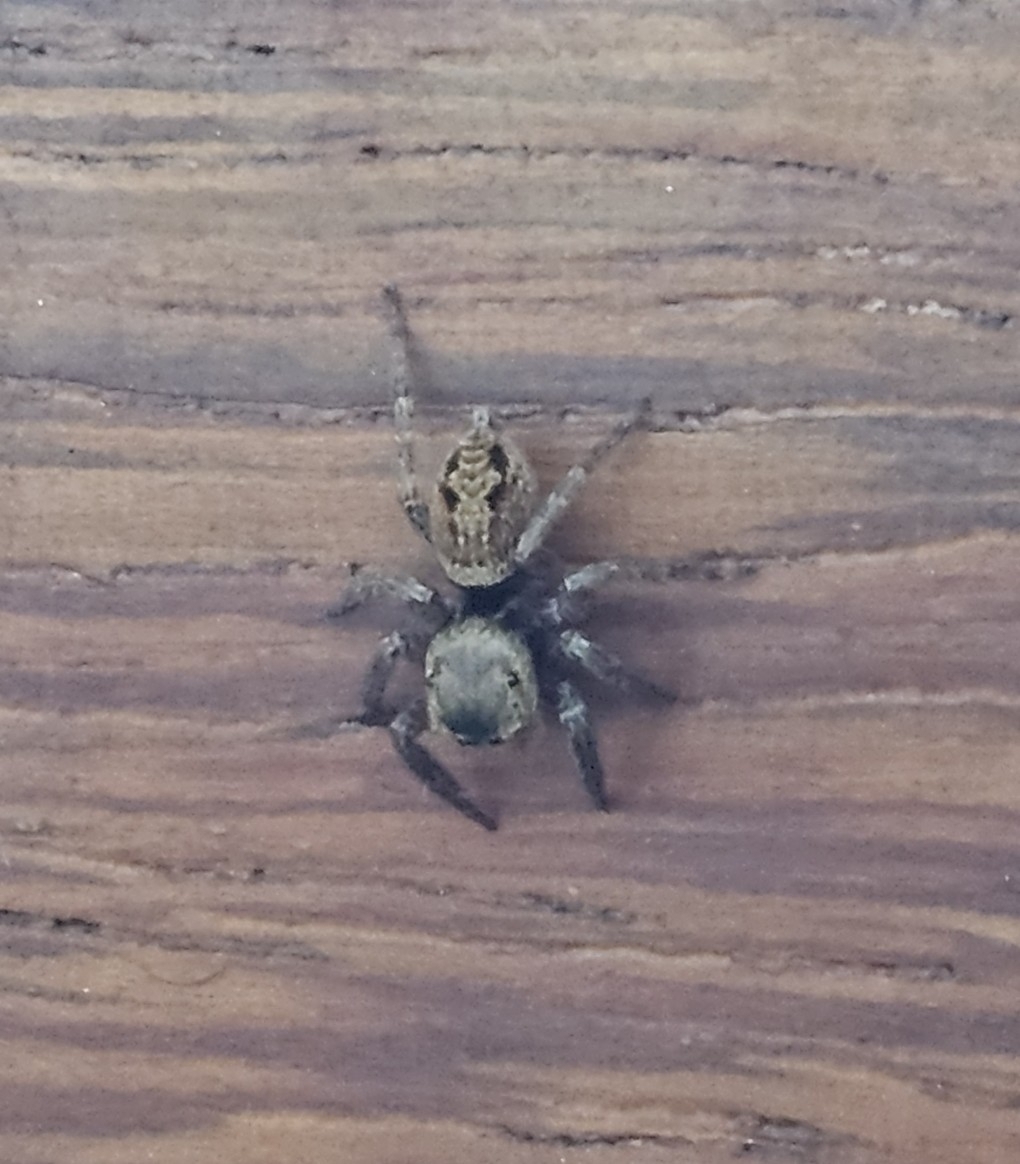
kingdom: Animalia
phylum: Arthropoda
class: Arachnida
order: Araneae
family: Salticidae
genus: Hasarius
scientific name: Hasarius adansoni
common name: Jumping spider
